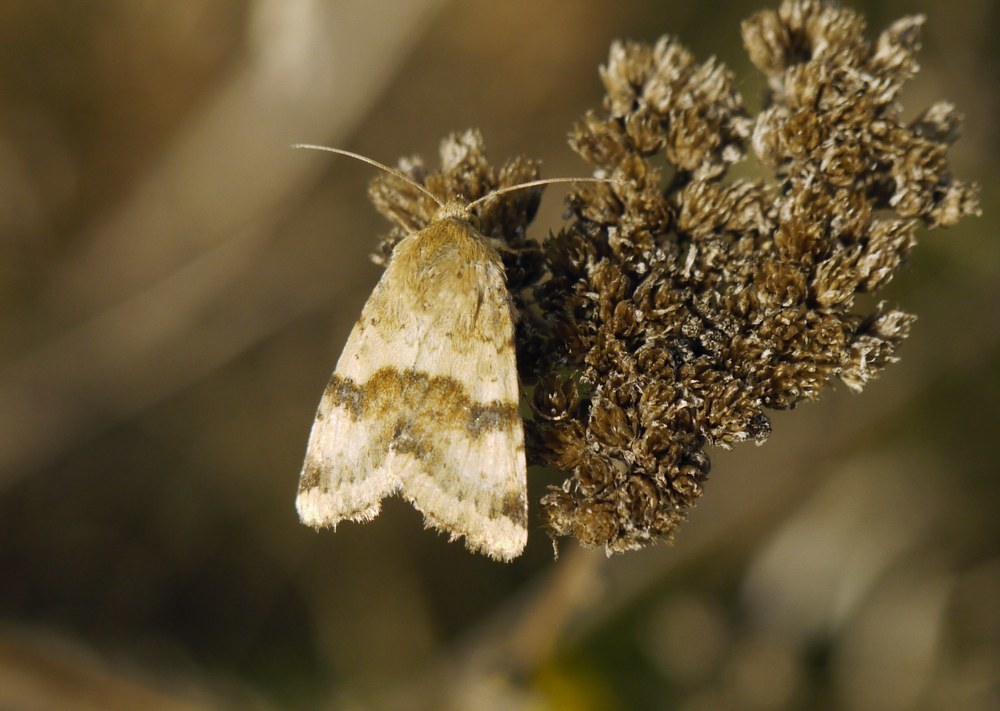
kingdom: Animalia
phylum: Arthropoda
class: Insecta
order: Lepidoptera
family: Noctuidae
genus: Heliothis
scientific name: Heliothis viriplaca
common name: Marbled clover
